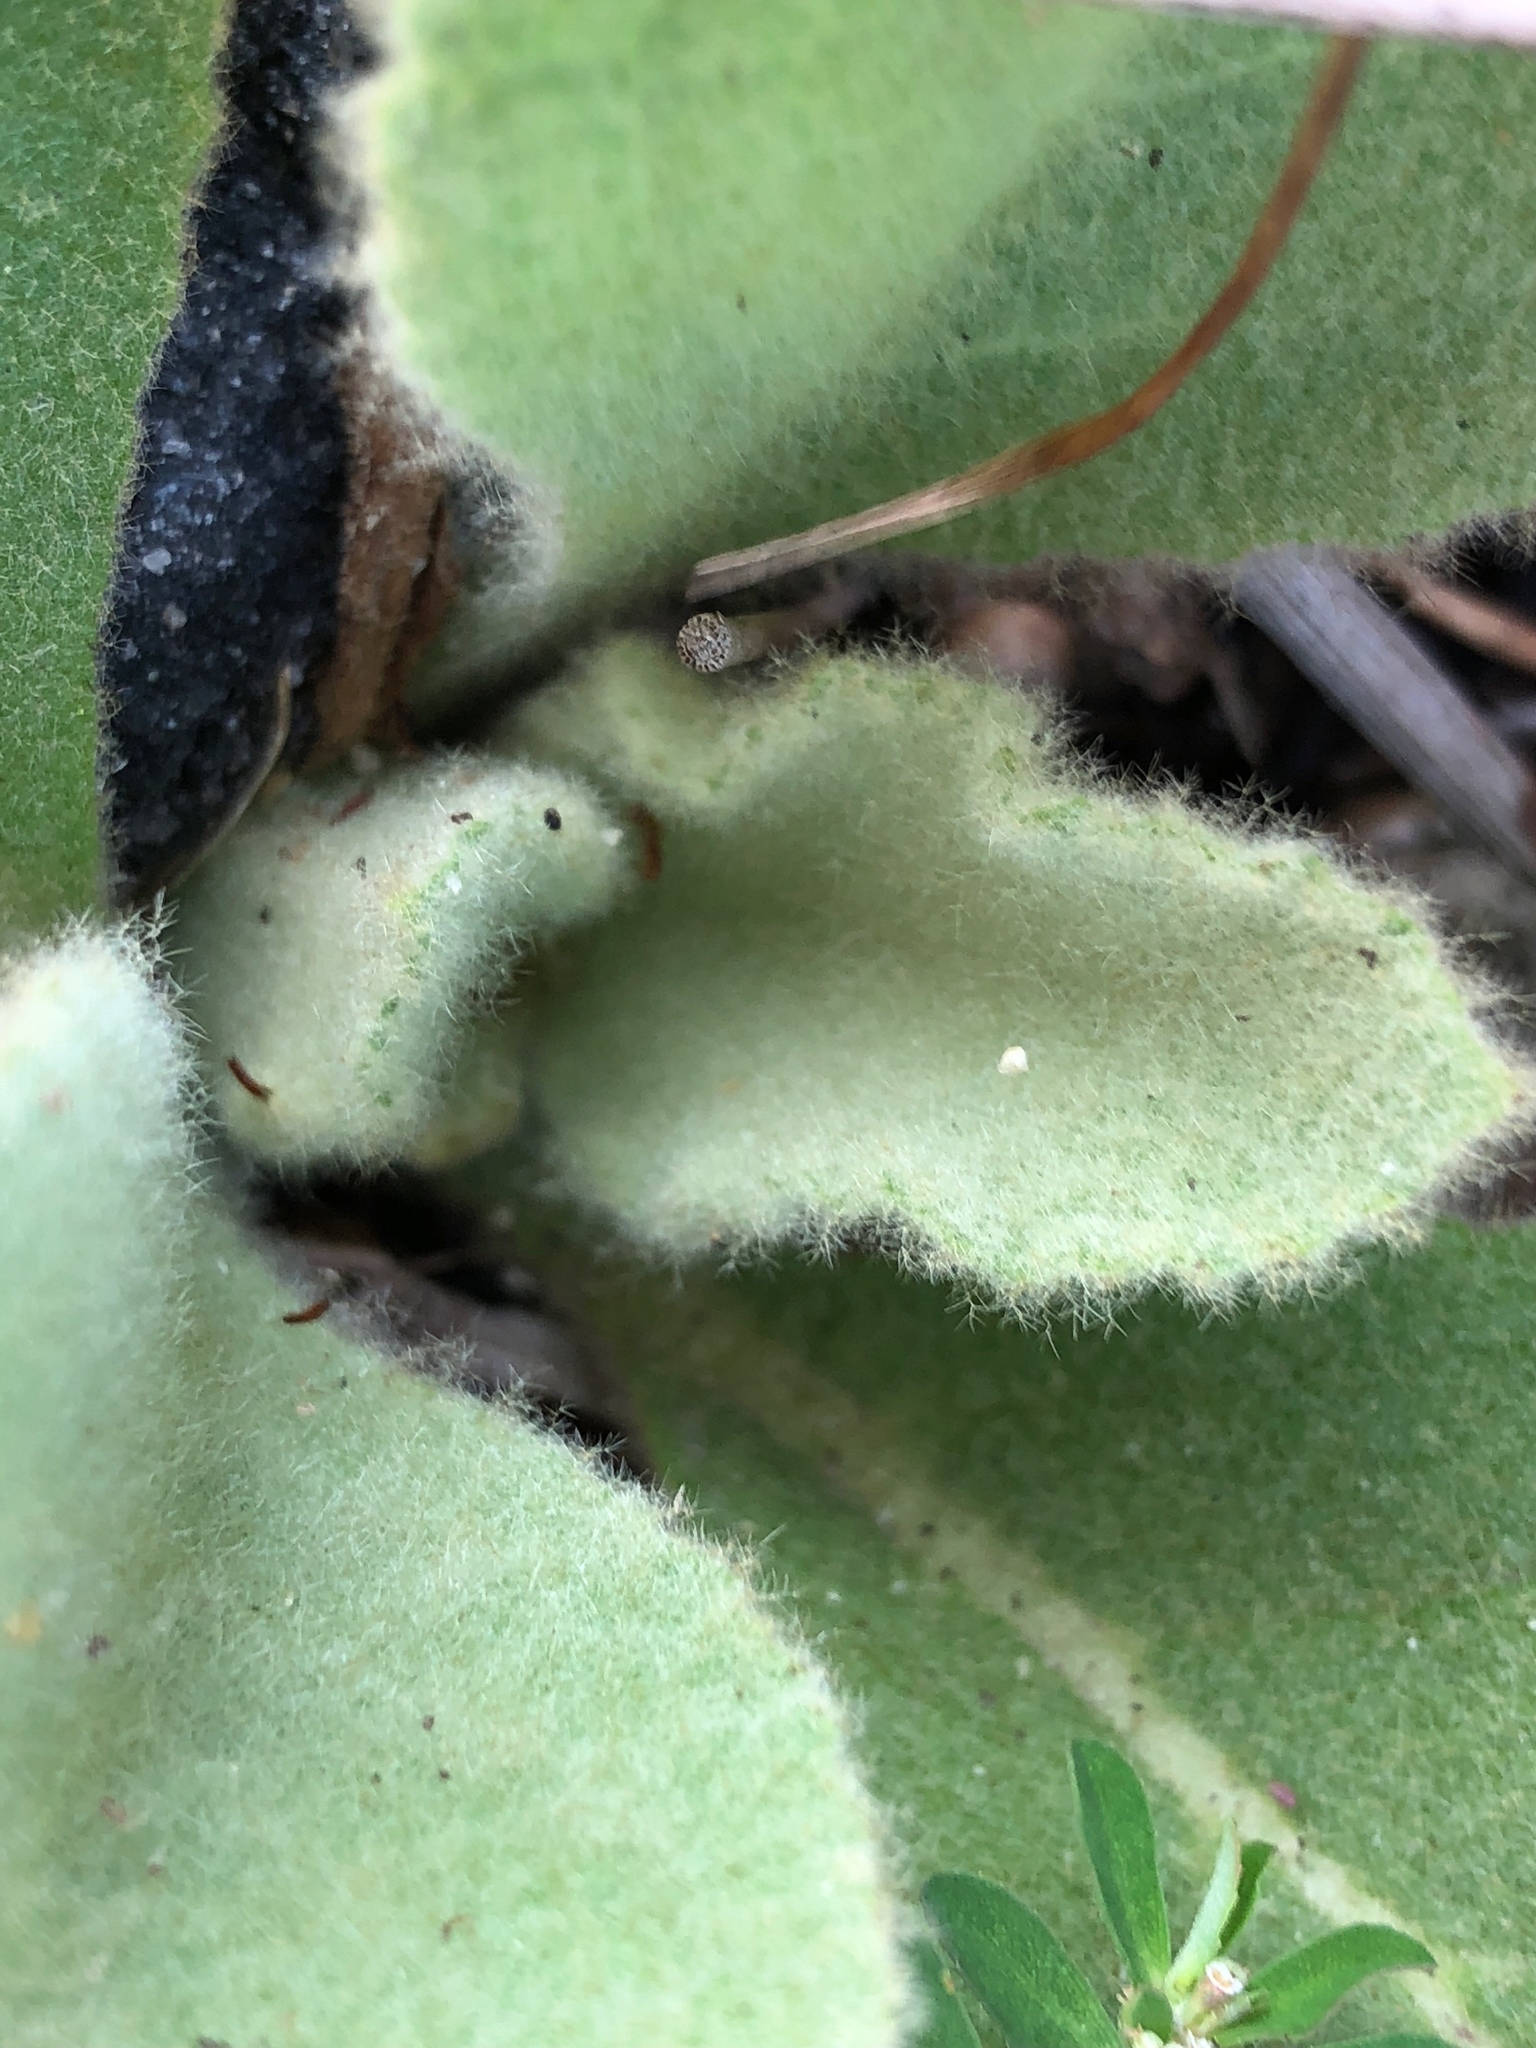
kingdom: Plantae
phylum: Tracheophyta
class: Magnoliopsida
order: Lamiales
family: Scrophulariaceae
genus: Verbascum
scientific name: Verbascum thapsus
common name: Common mullein
